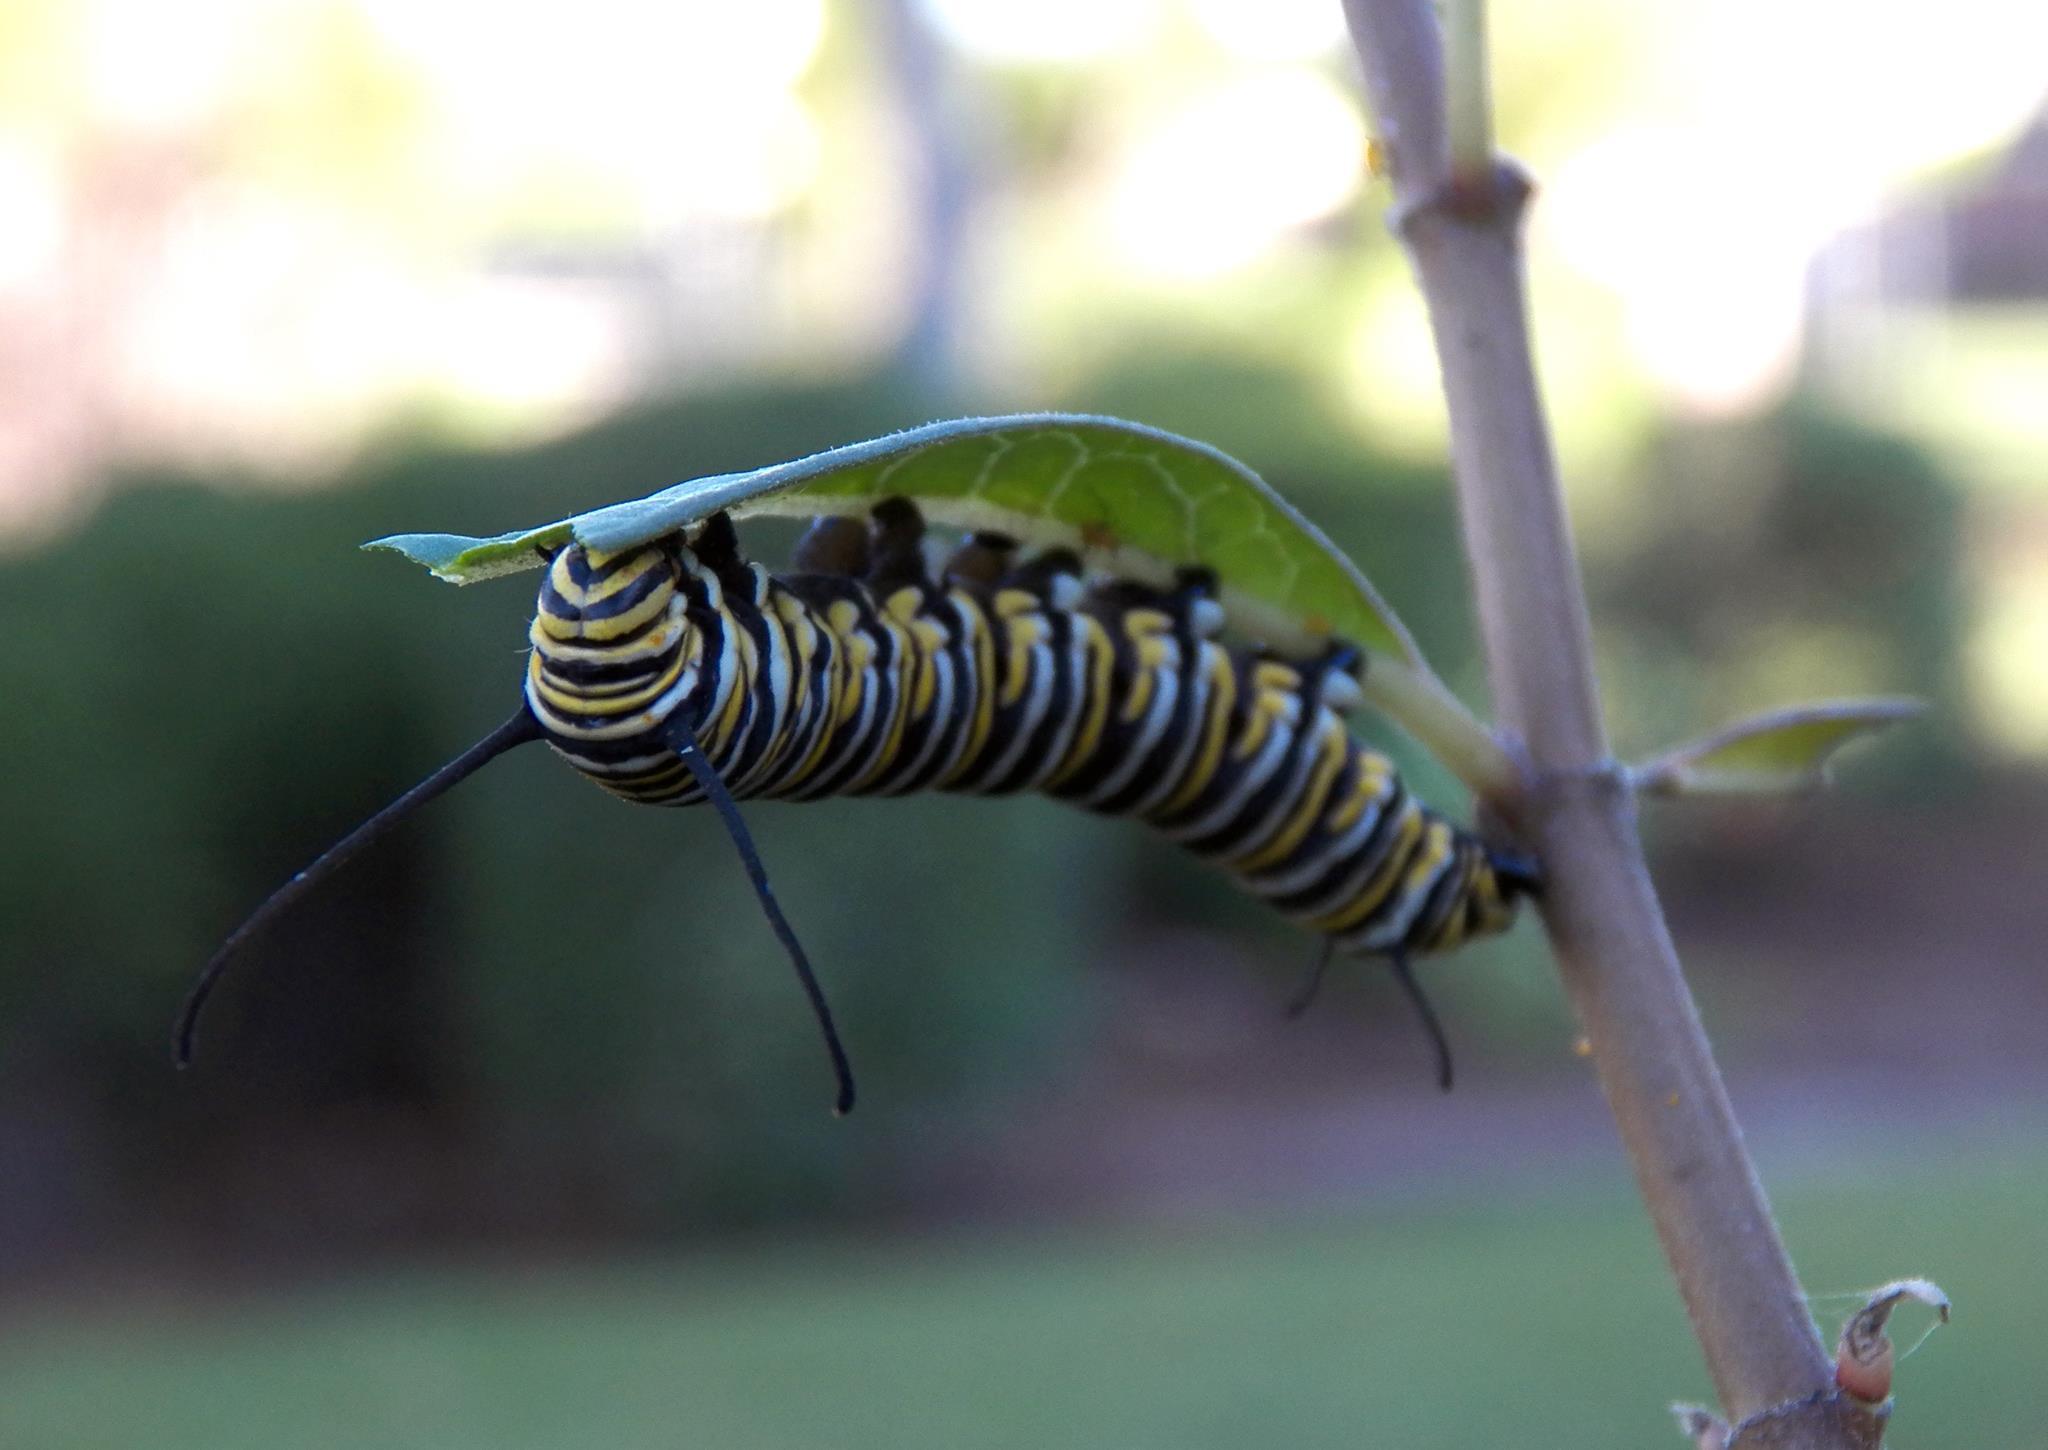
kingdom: Animalia
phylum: Arthropoda
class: Insecta
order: Lepidoptera
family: Nymphalidae
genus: Danaus
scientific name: Danaus plexippus
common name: Monarch
